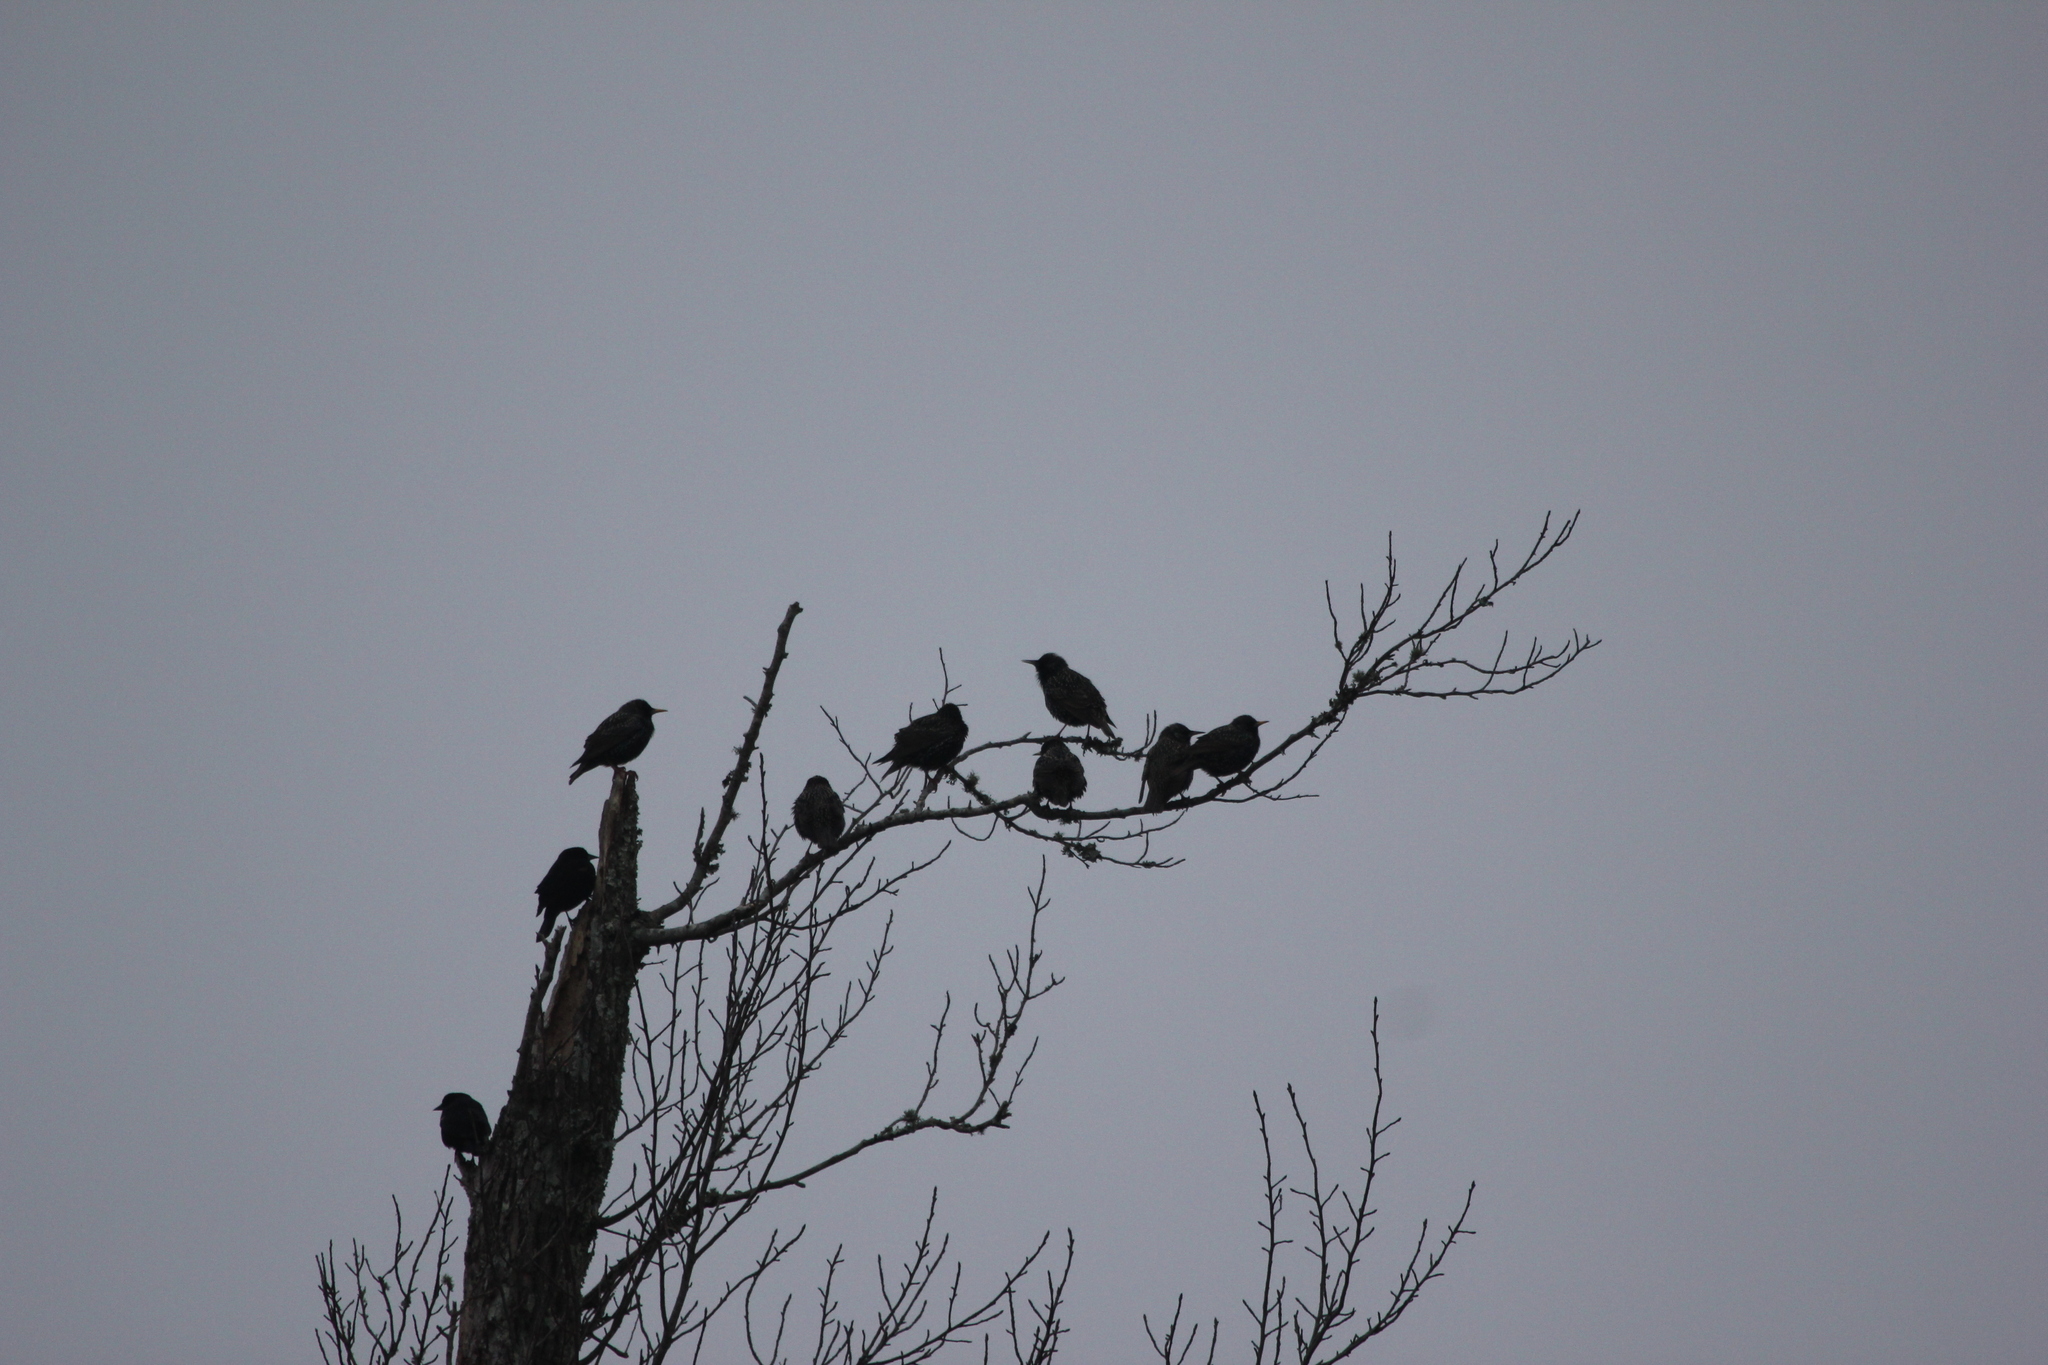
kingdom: Animalia
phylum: Chordata
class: Aves
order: Passeriformes
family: Sturnidae
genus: Sturnus
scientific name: Sturnus vulgaris
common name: Common starling
